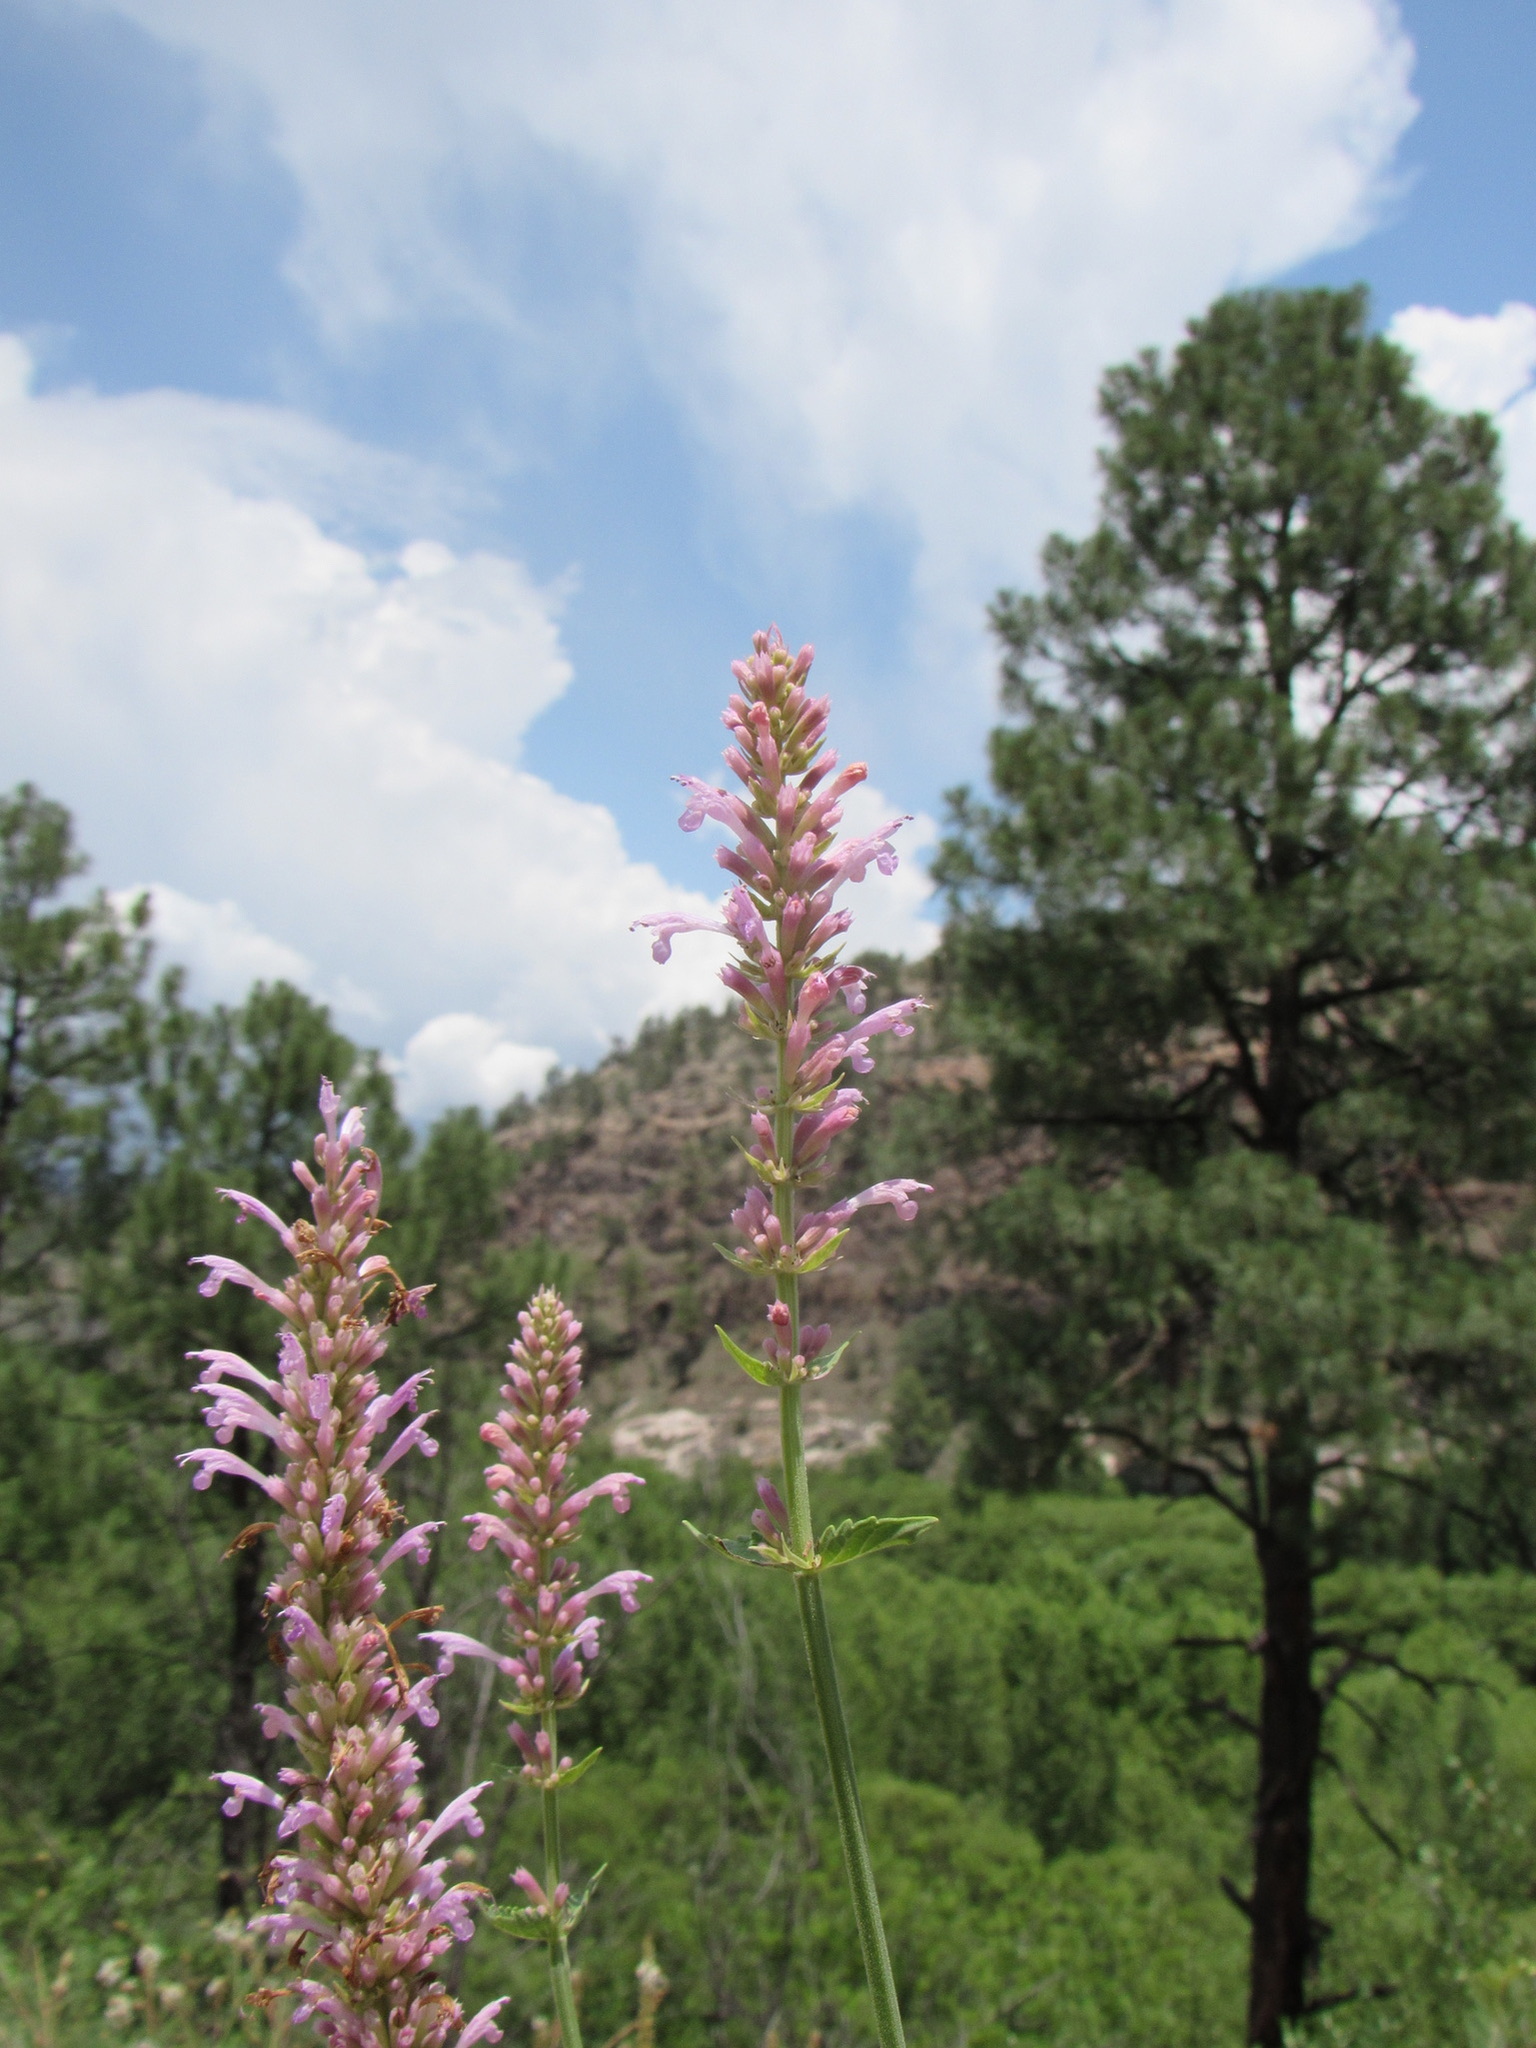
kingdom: Plantae
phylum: Tracheophyta
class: Magnoliopsida
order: Lamiales
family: Lamiaceae
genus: Agastache
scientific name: Agastache pallidiflora
